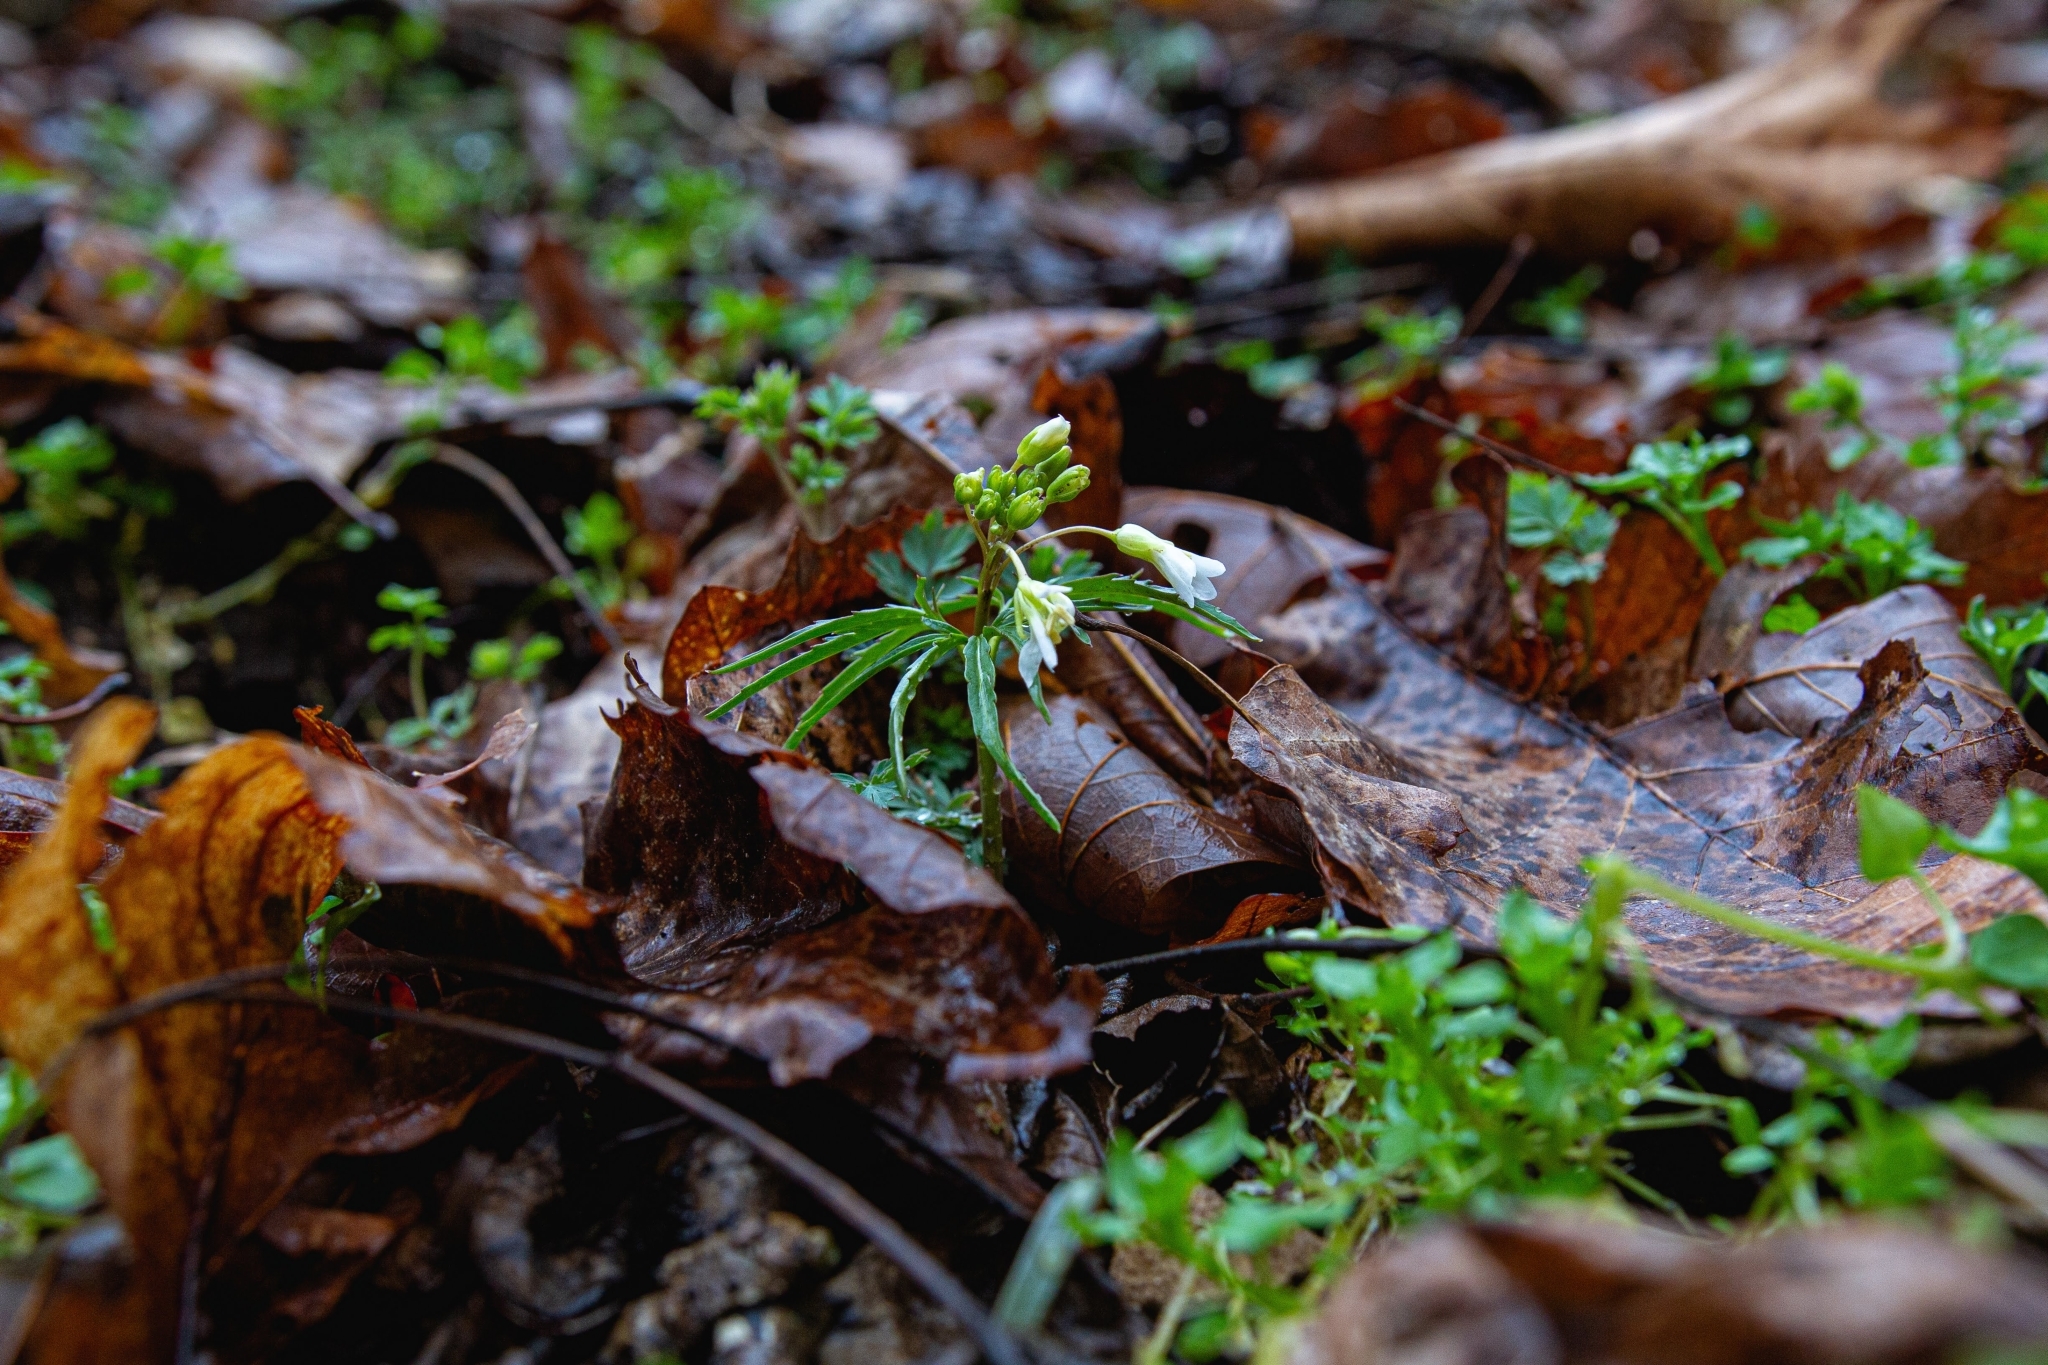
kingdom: Plantae
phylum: Tracheophyta
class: Magnoliopsida
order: Brassicales
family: Brassicaceae
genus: Cardamine
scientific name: Cardamine concatenata
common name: Cut-leaf toothcup
